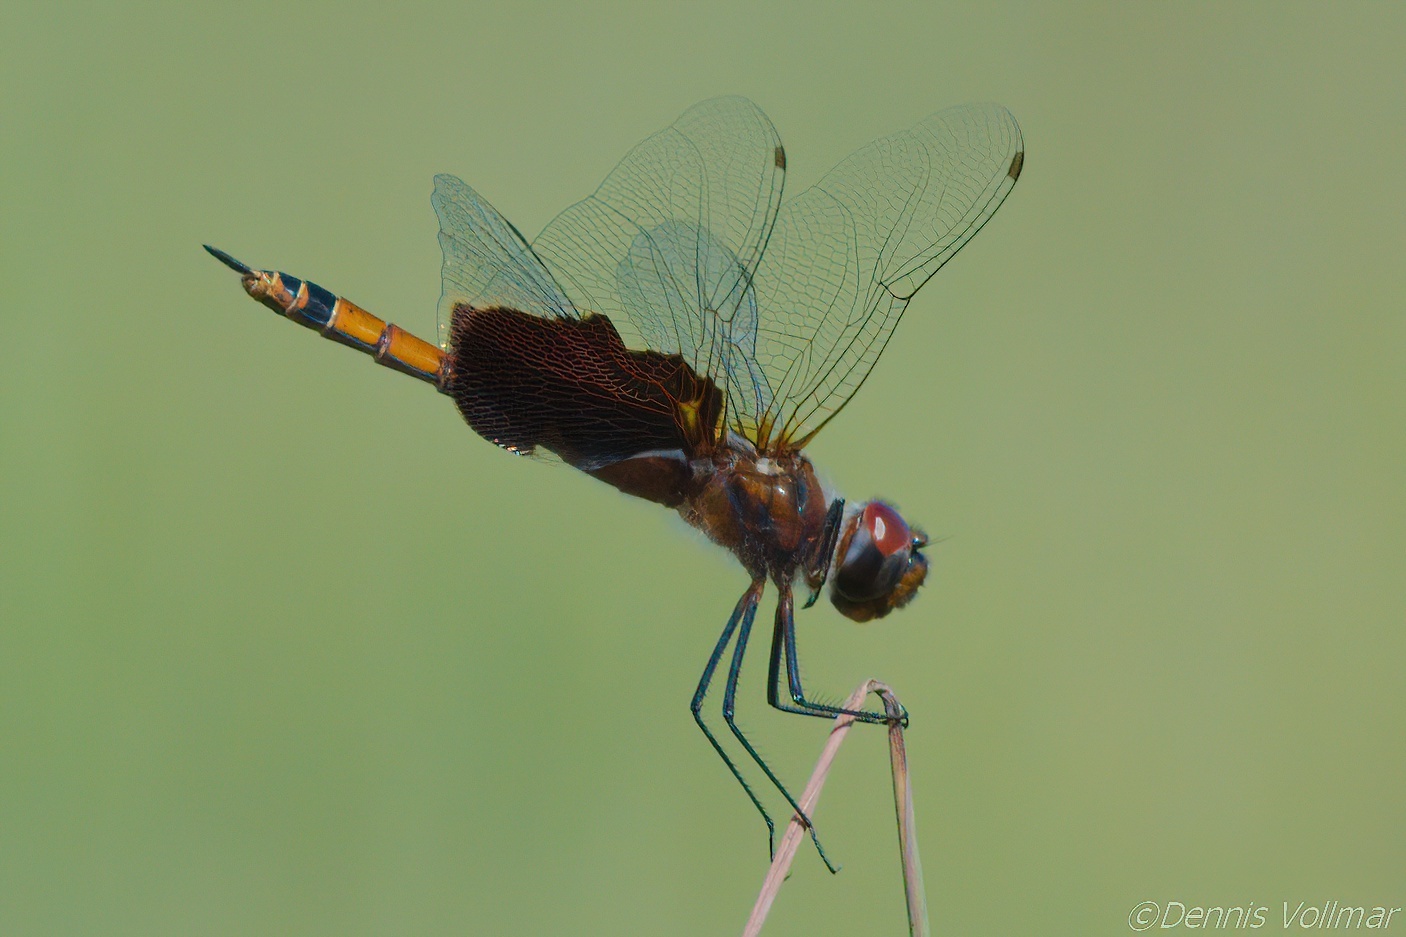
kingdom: Animalia
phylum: Arthropoda
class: Insecta
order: Odonata
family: Libellulidae
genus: Tramea
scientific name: Tramea carolina
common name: Carolina saddlebags
